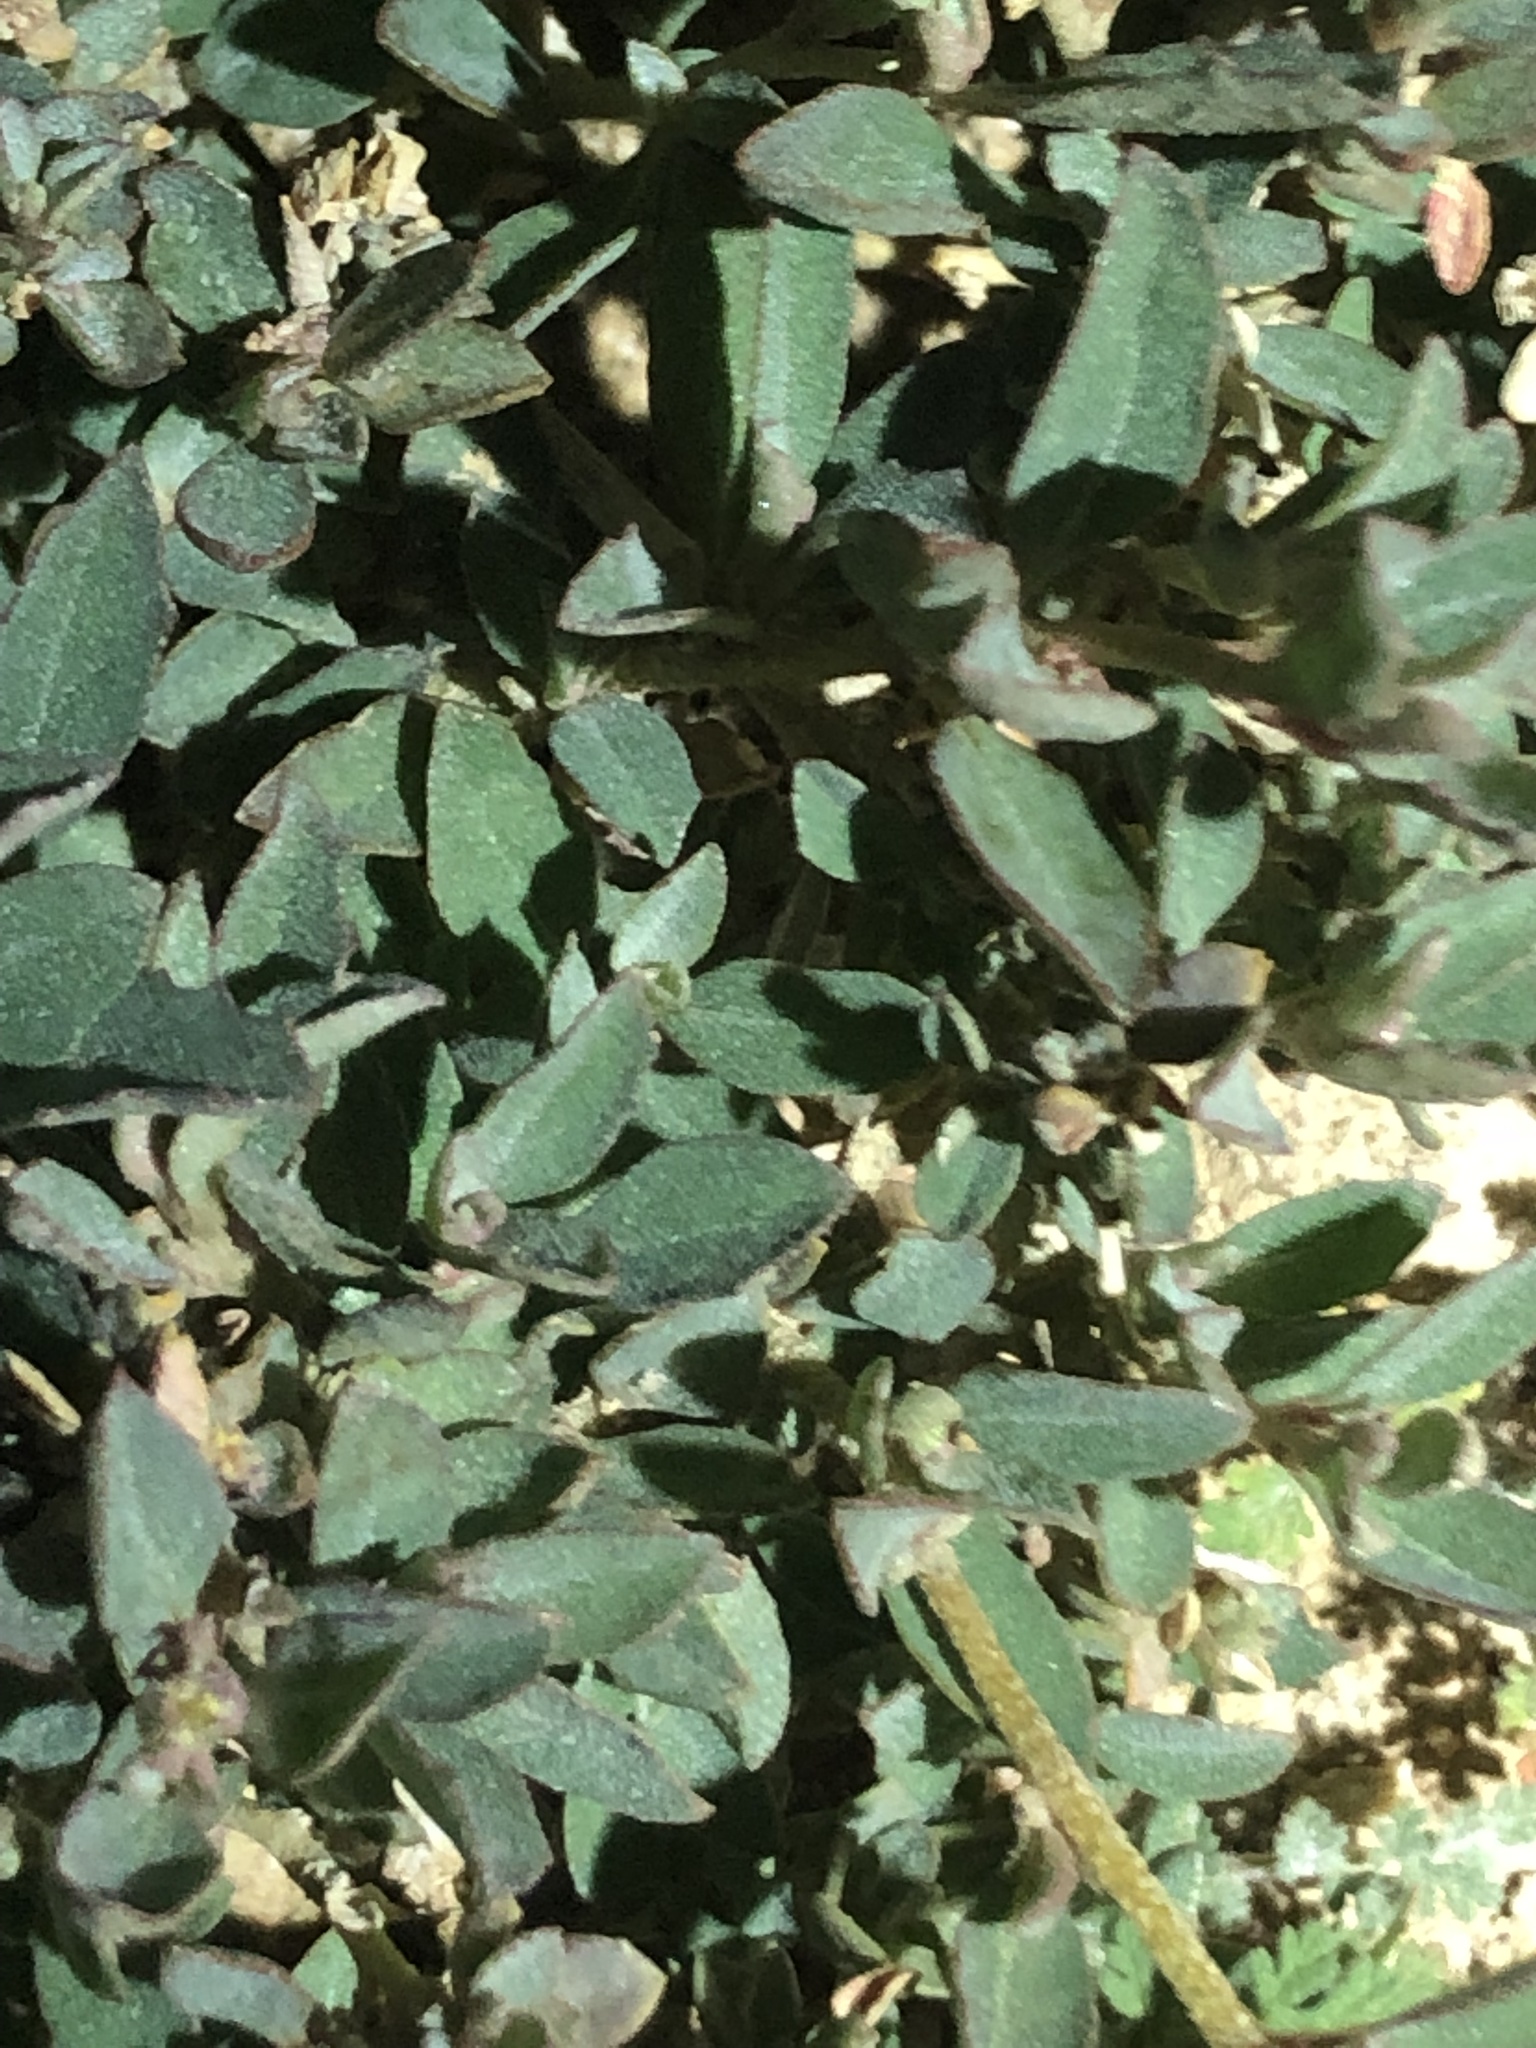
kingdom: Plantae
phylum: Tracheophyta
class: Magnoliopsida
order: Caryophyllales
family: Amaranthaceae
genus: Atriplex
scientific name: Atriplex semibaccata
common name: Australian saltbush
